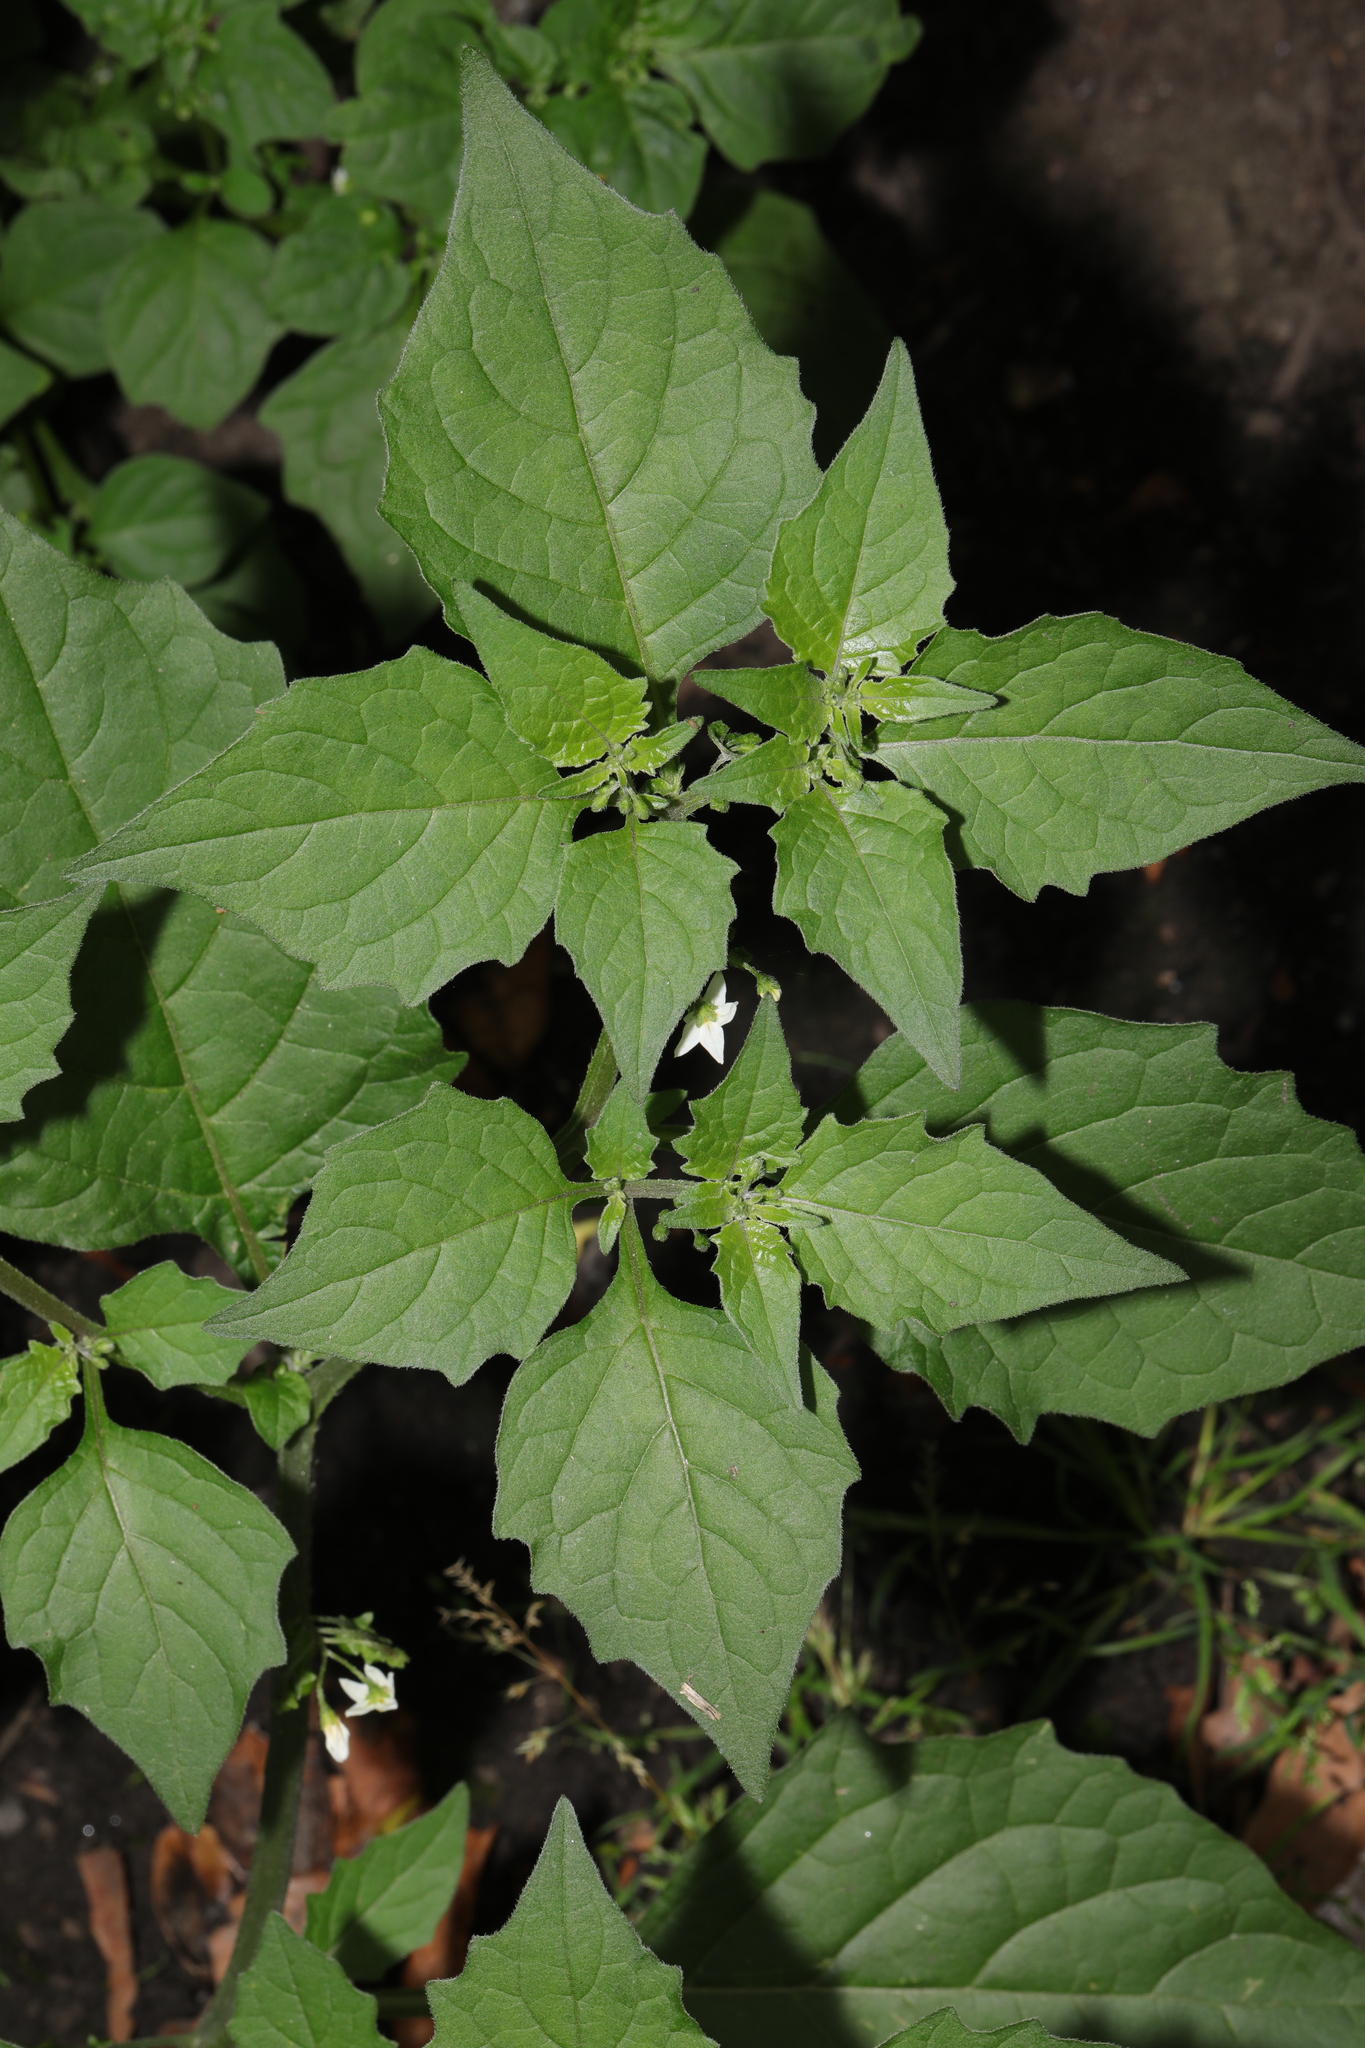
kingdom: Plantae
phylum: Tracheophyta
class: Magnoliopsida
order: Solanales
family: Solanaceae
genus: Solanum
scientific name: Solanum nigrum
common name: Black nightshade
